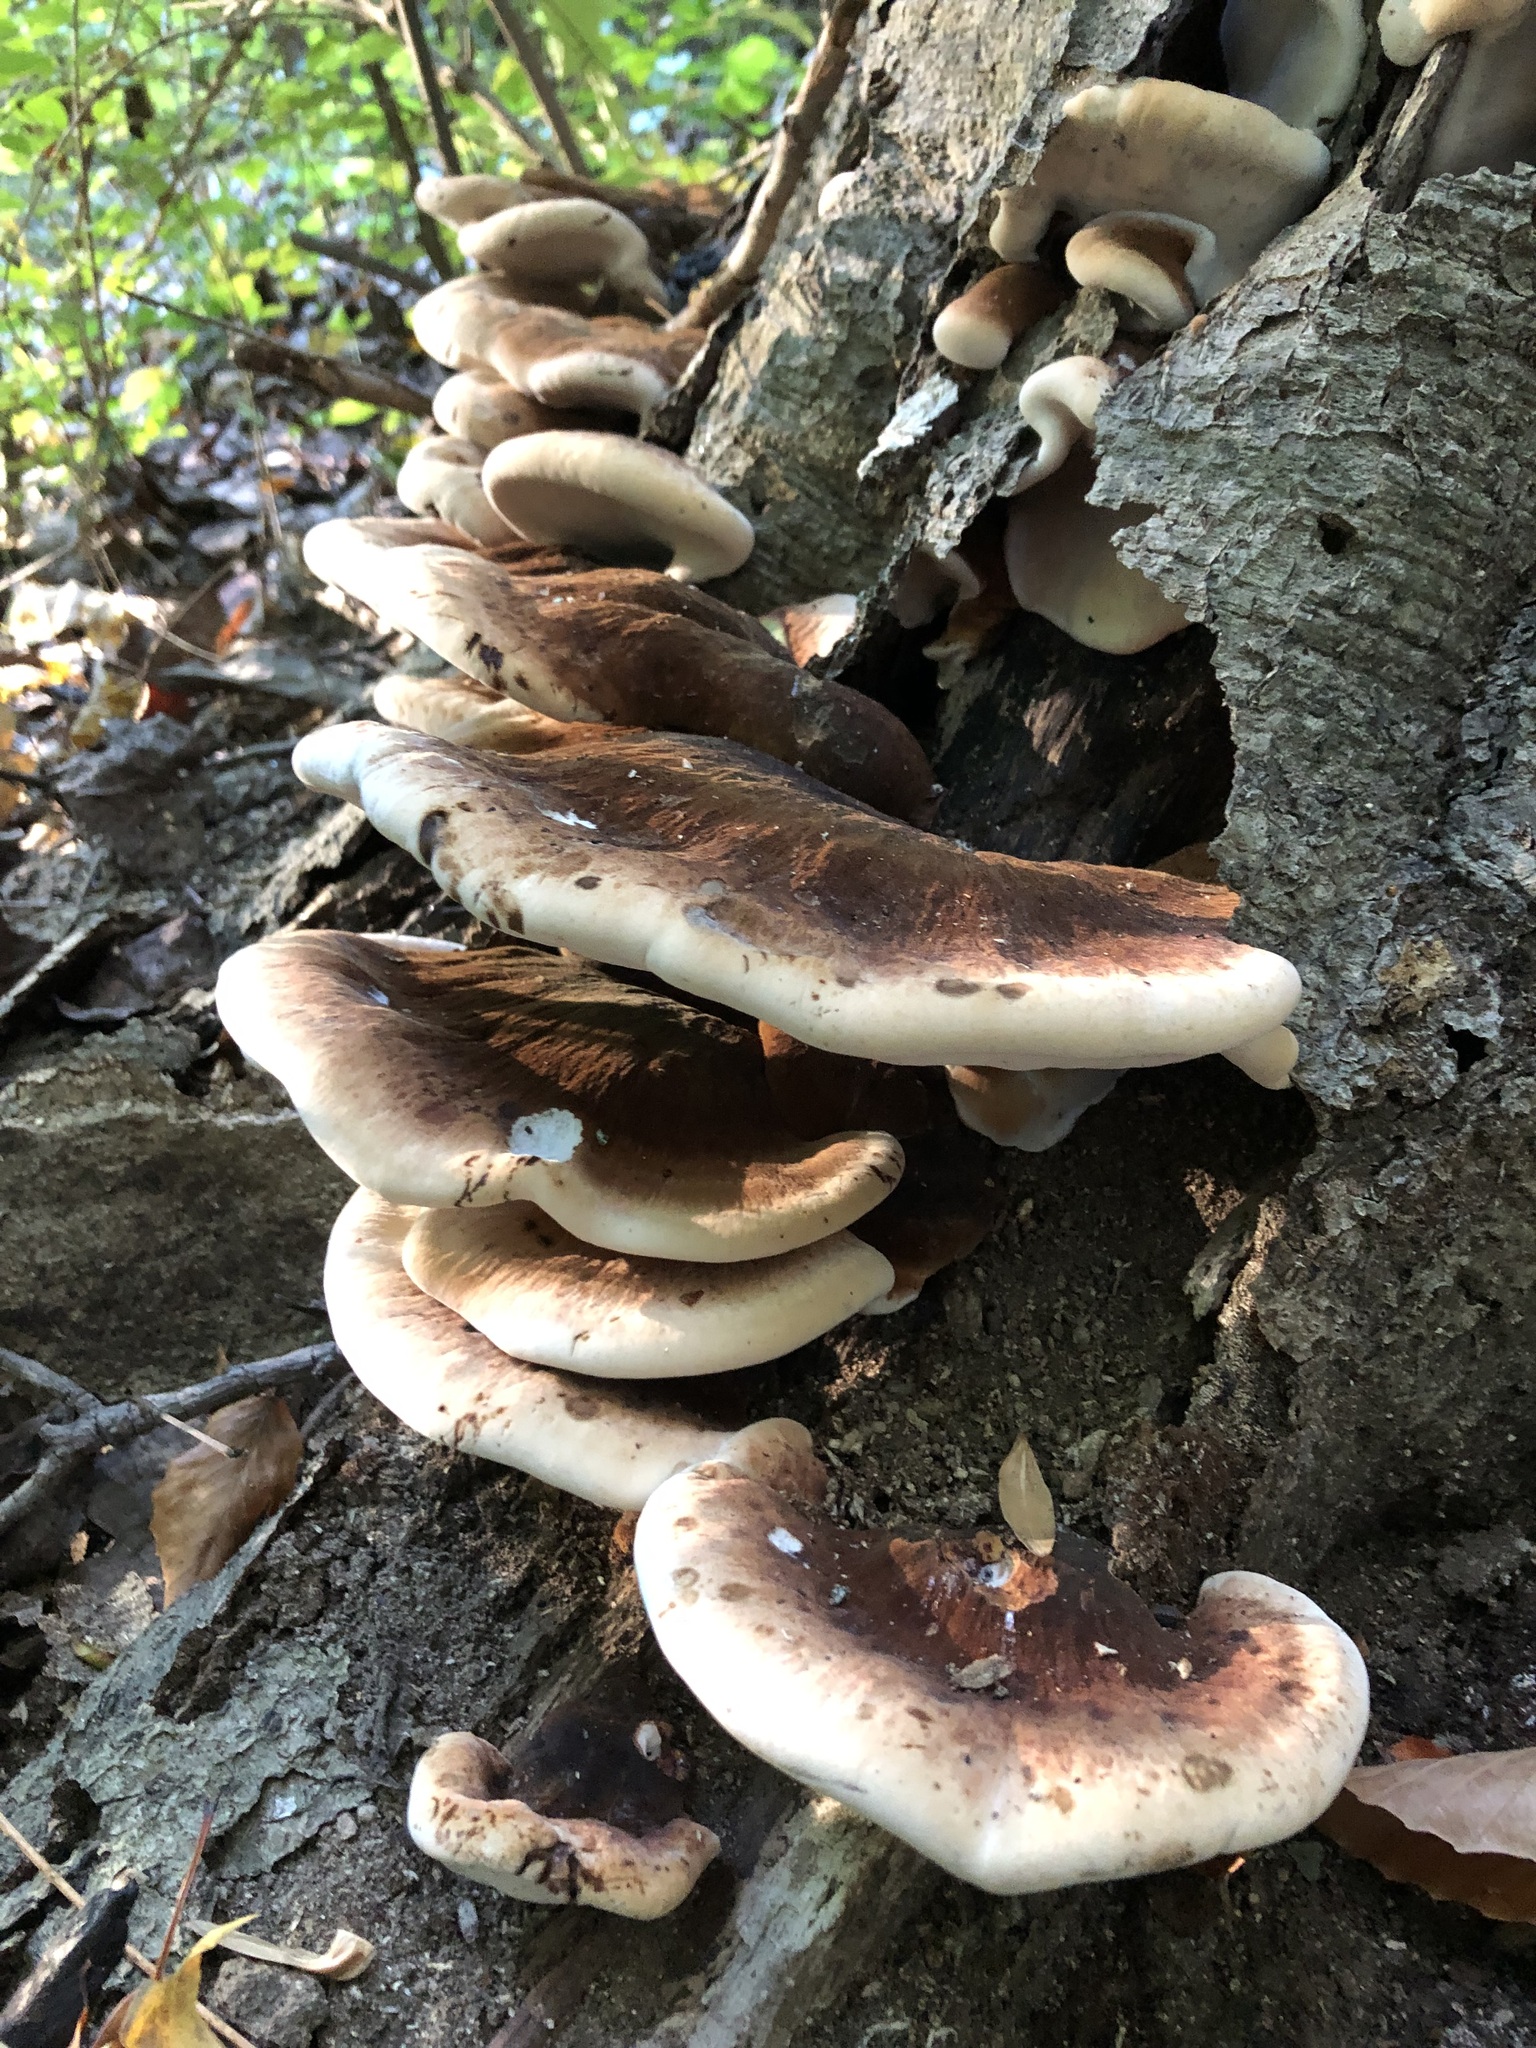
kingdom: Fungi
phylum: Basidiomycota
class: Agaricomycetes
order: Polyporales
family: Ischnodermataceae
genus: Ischnoderma
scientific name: Ischnoderma resinosum
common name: Resinous polypore
